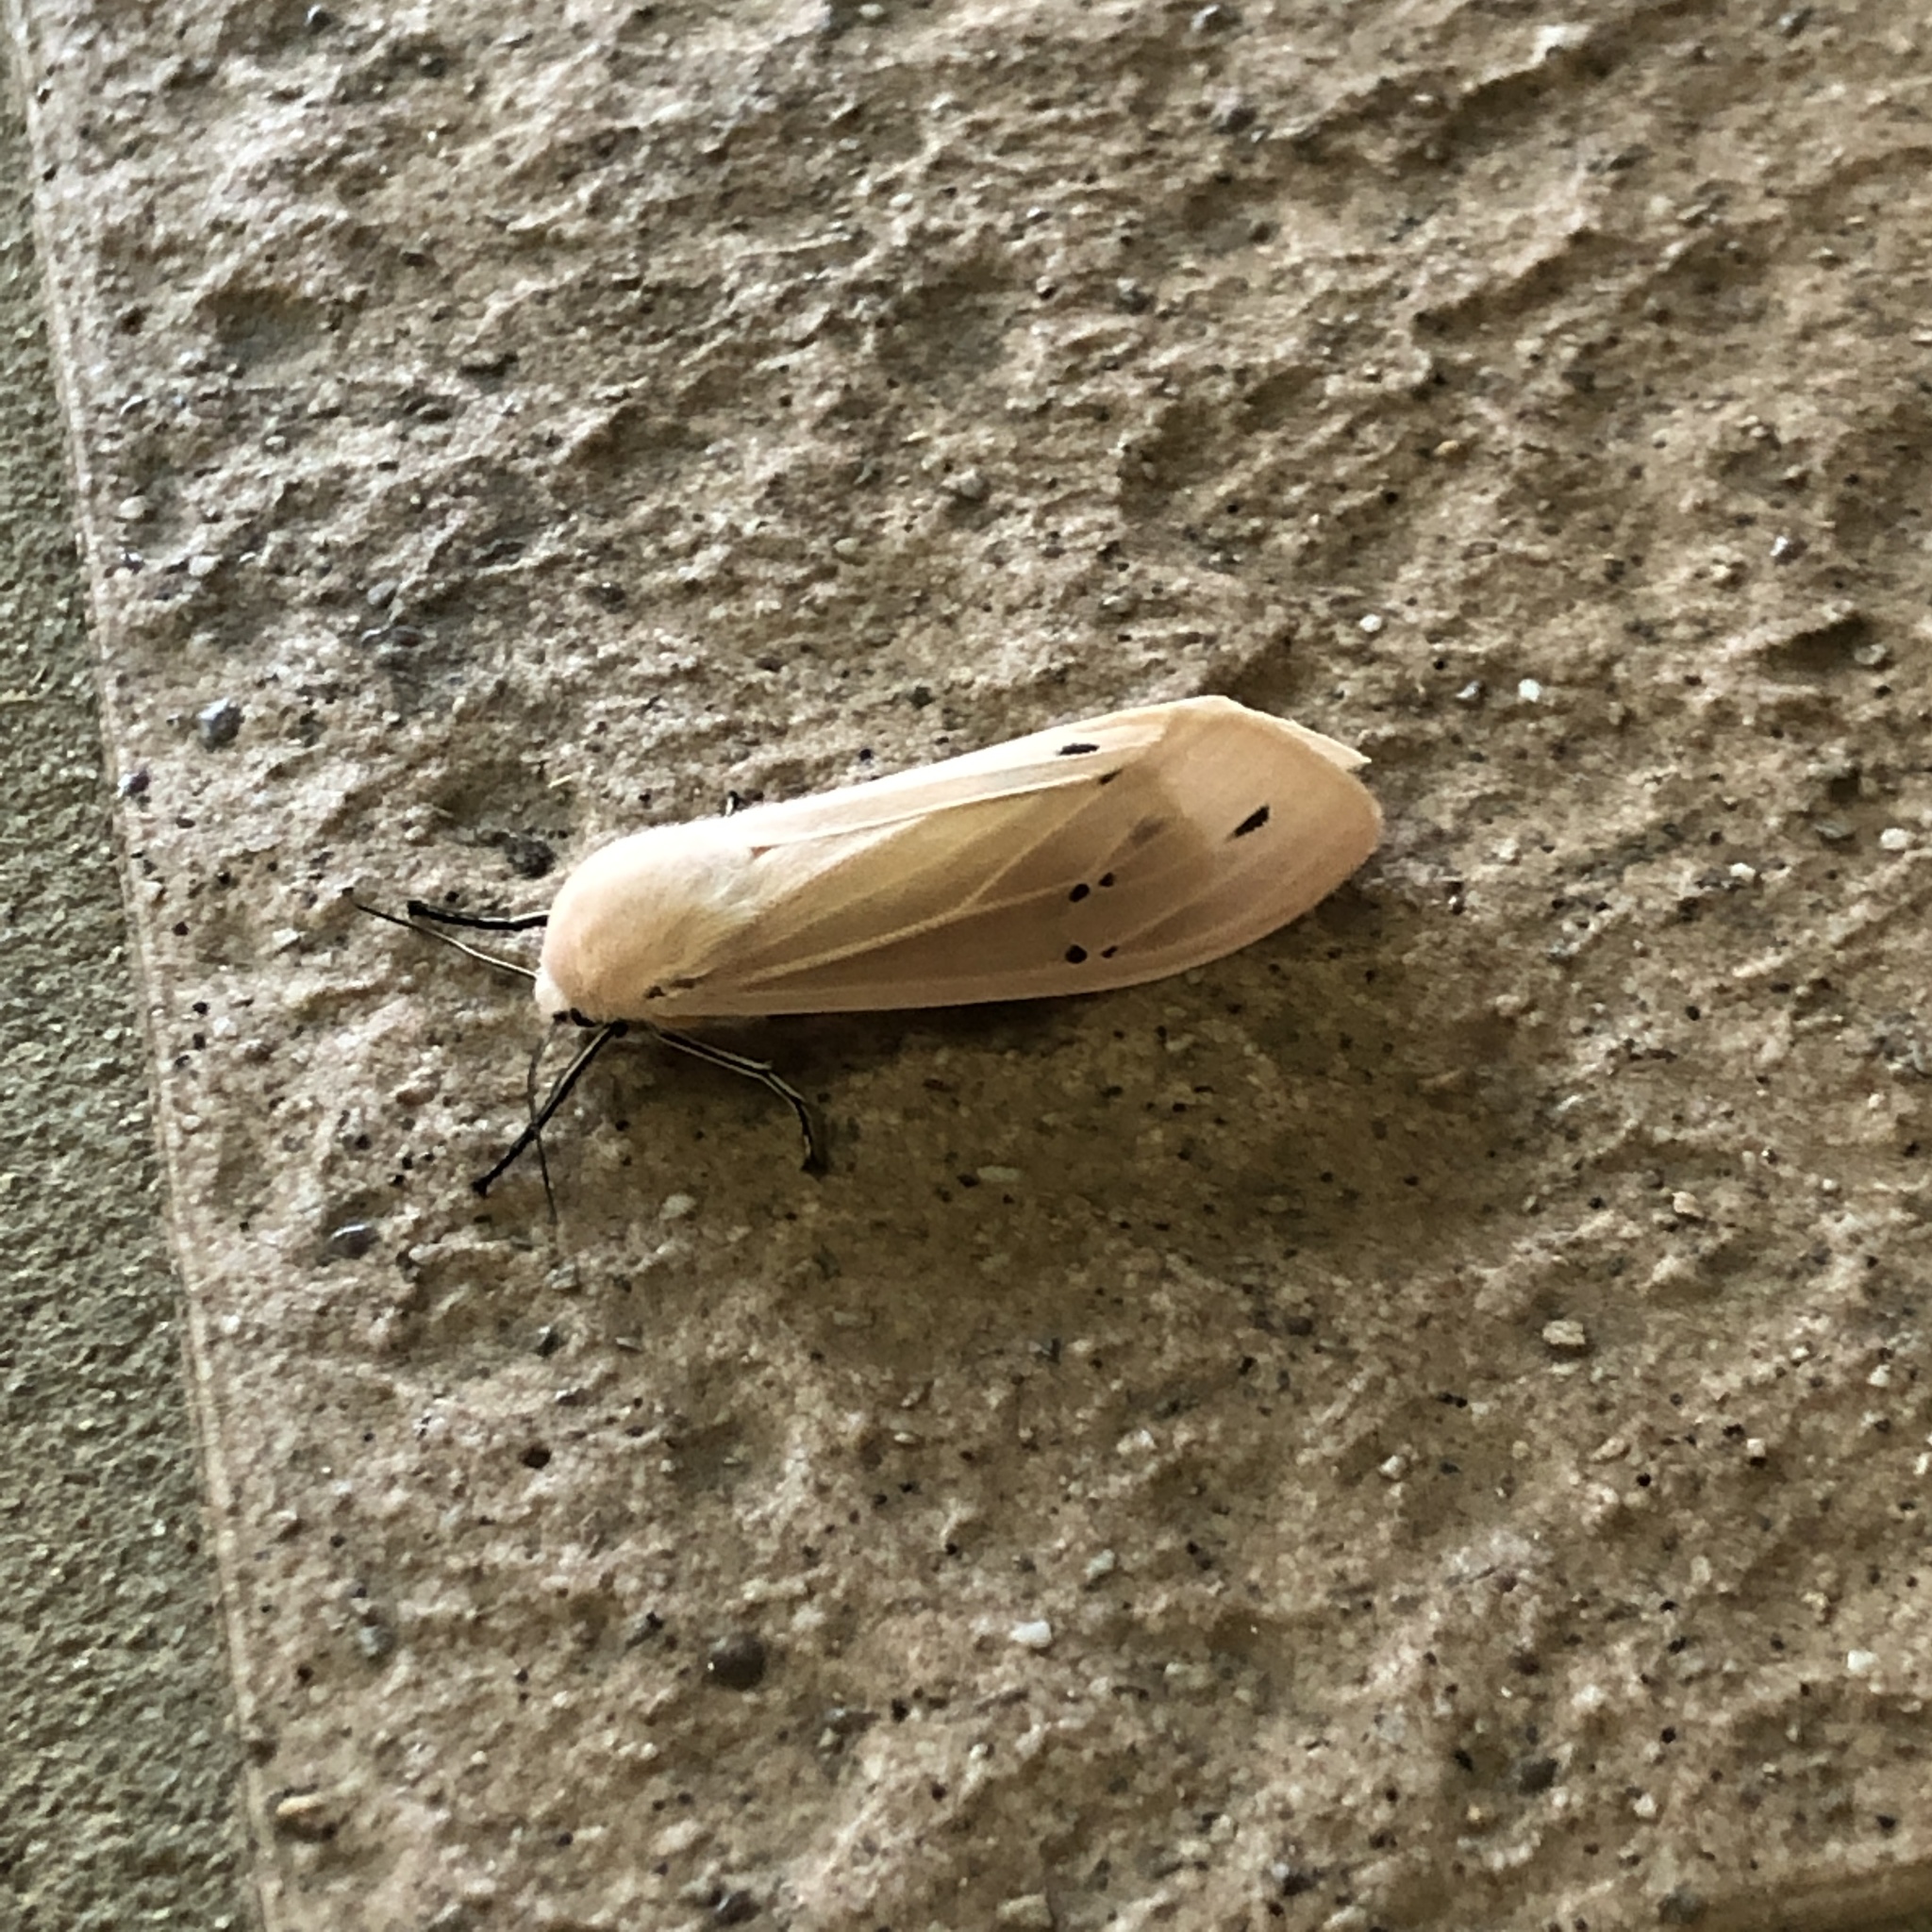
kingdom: Animalia
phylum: Arthropoda
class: Insecta
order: Lepidoptera
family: Erebidae
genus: Creatonotos
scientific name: Creatonotos transiens
